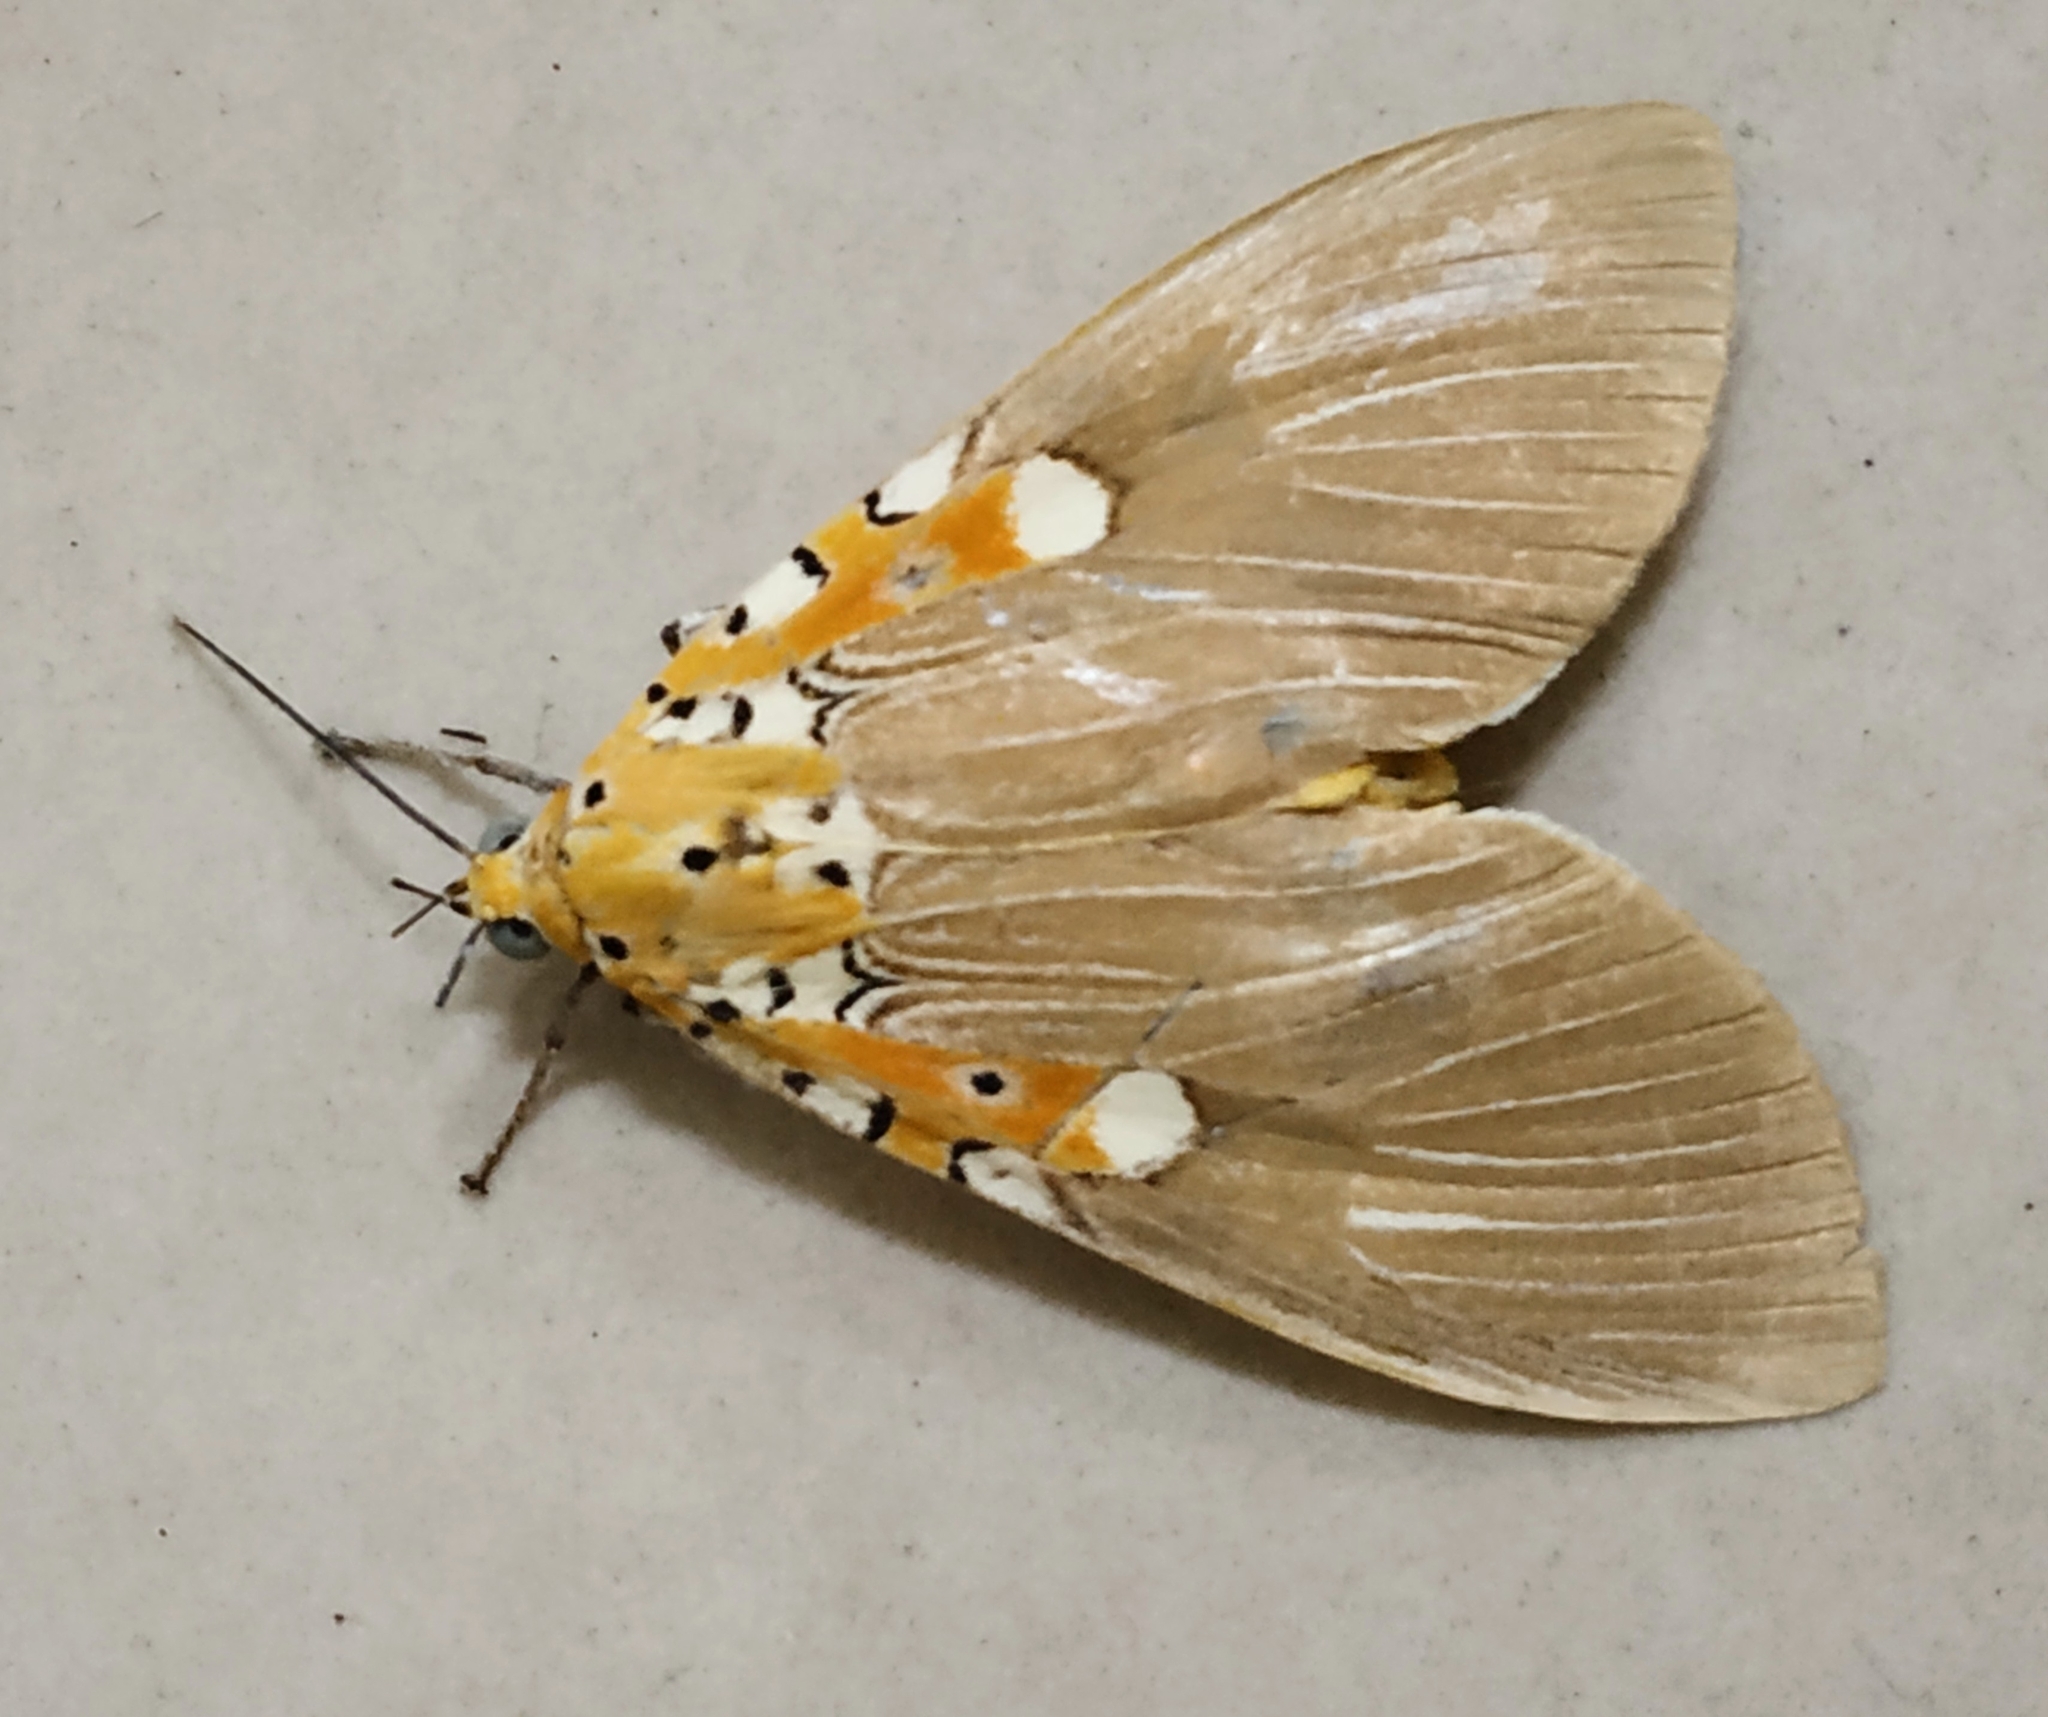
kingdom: Animalia
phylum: Arthropoda
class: Insecta
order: Lepidoptera
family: Erebidae
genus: Asota
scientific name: Asota ficus
